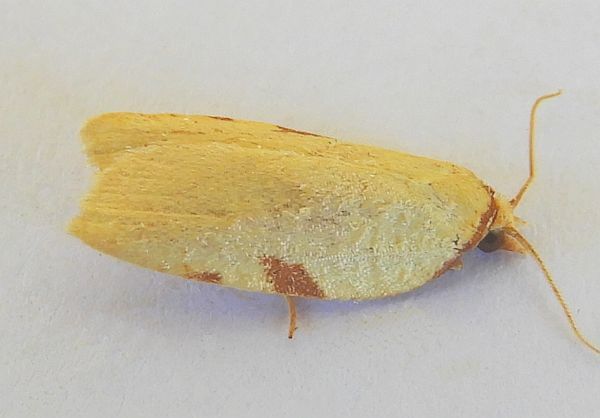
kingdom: Animalia
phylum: Arthropoda
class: Insecta
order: Lepidoptera
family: Tortricidae
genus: Amorbia
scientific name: Amorbia cuneanum
